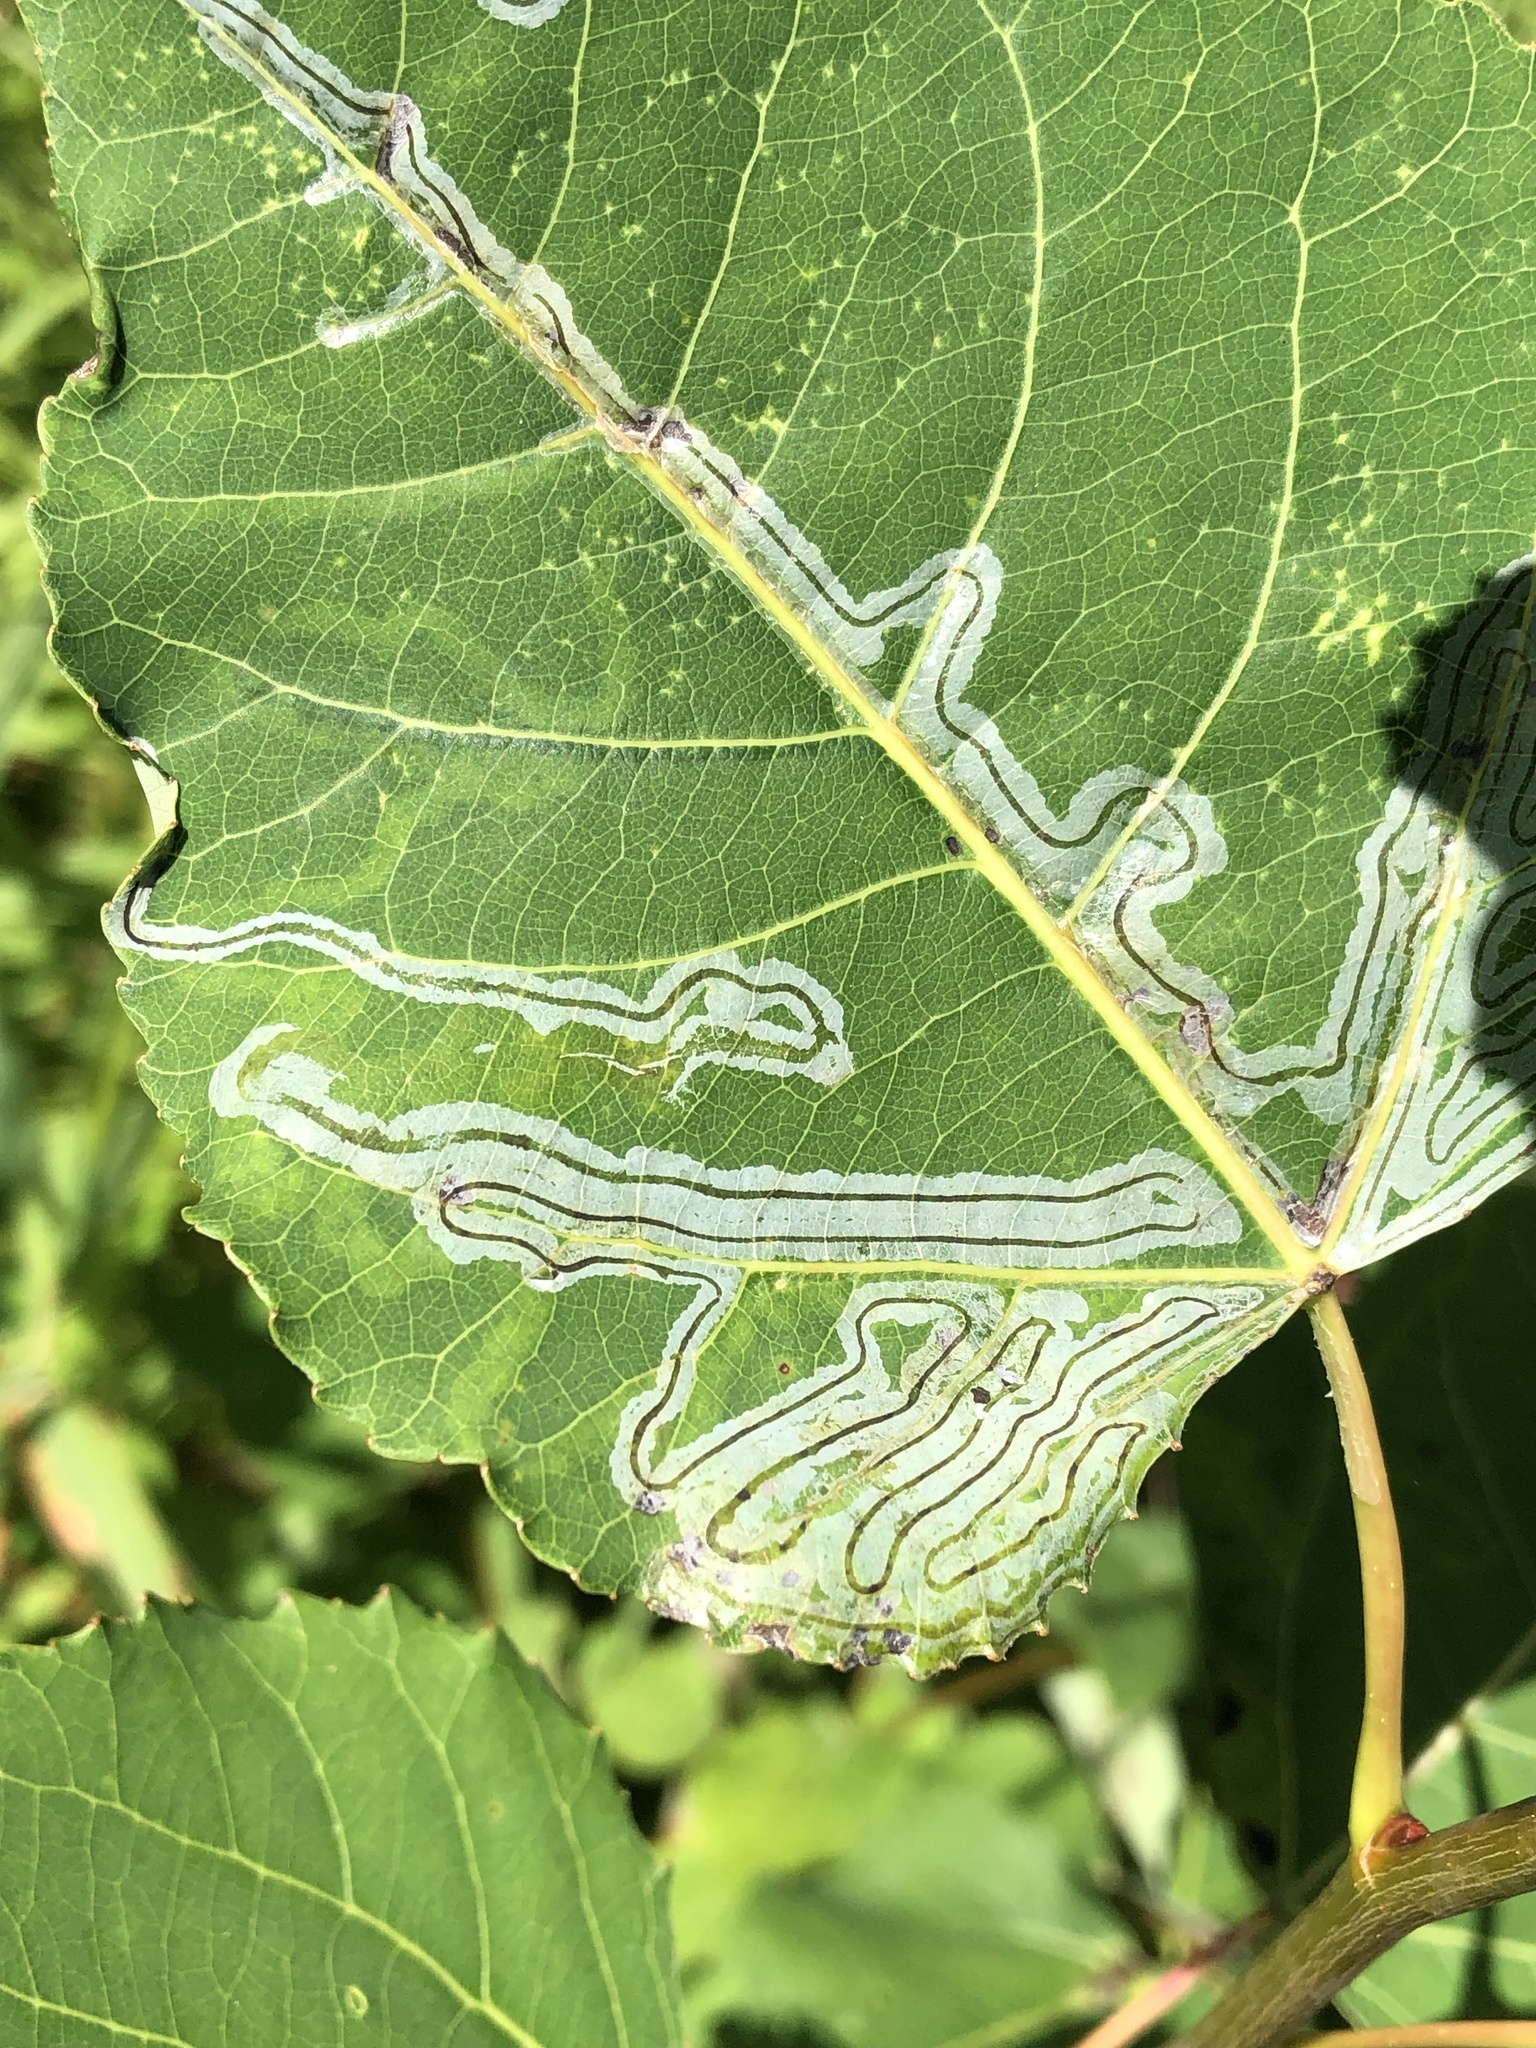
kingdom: Animalia
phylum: Arthropoda
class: Insecta
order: Lepidoptera
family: Gracillariidae
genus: Phyllocnistis
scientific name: Phyllocnistis populiella
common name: Aspen serpentine leafminer moth
